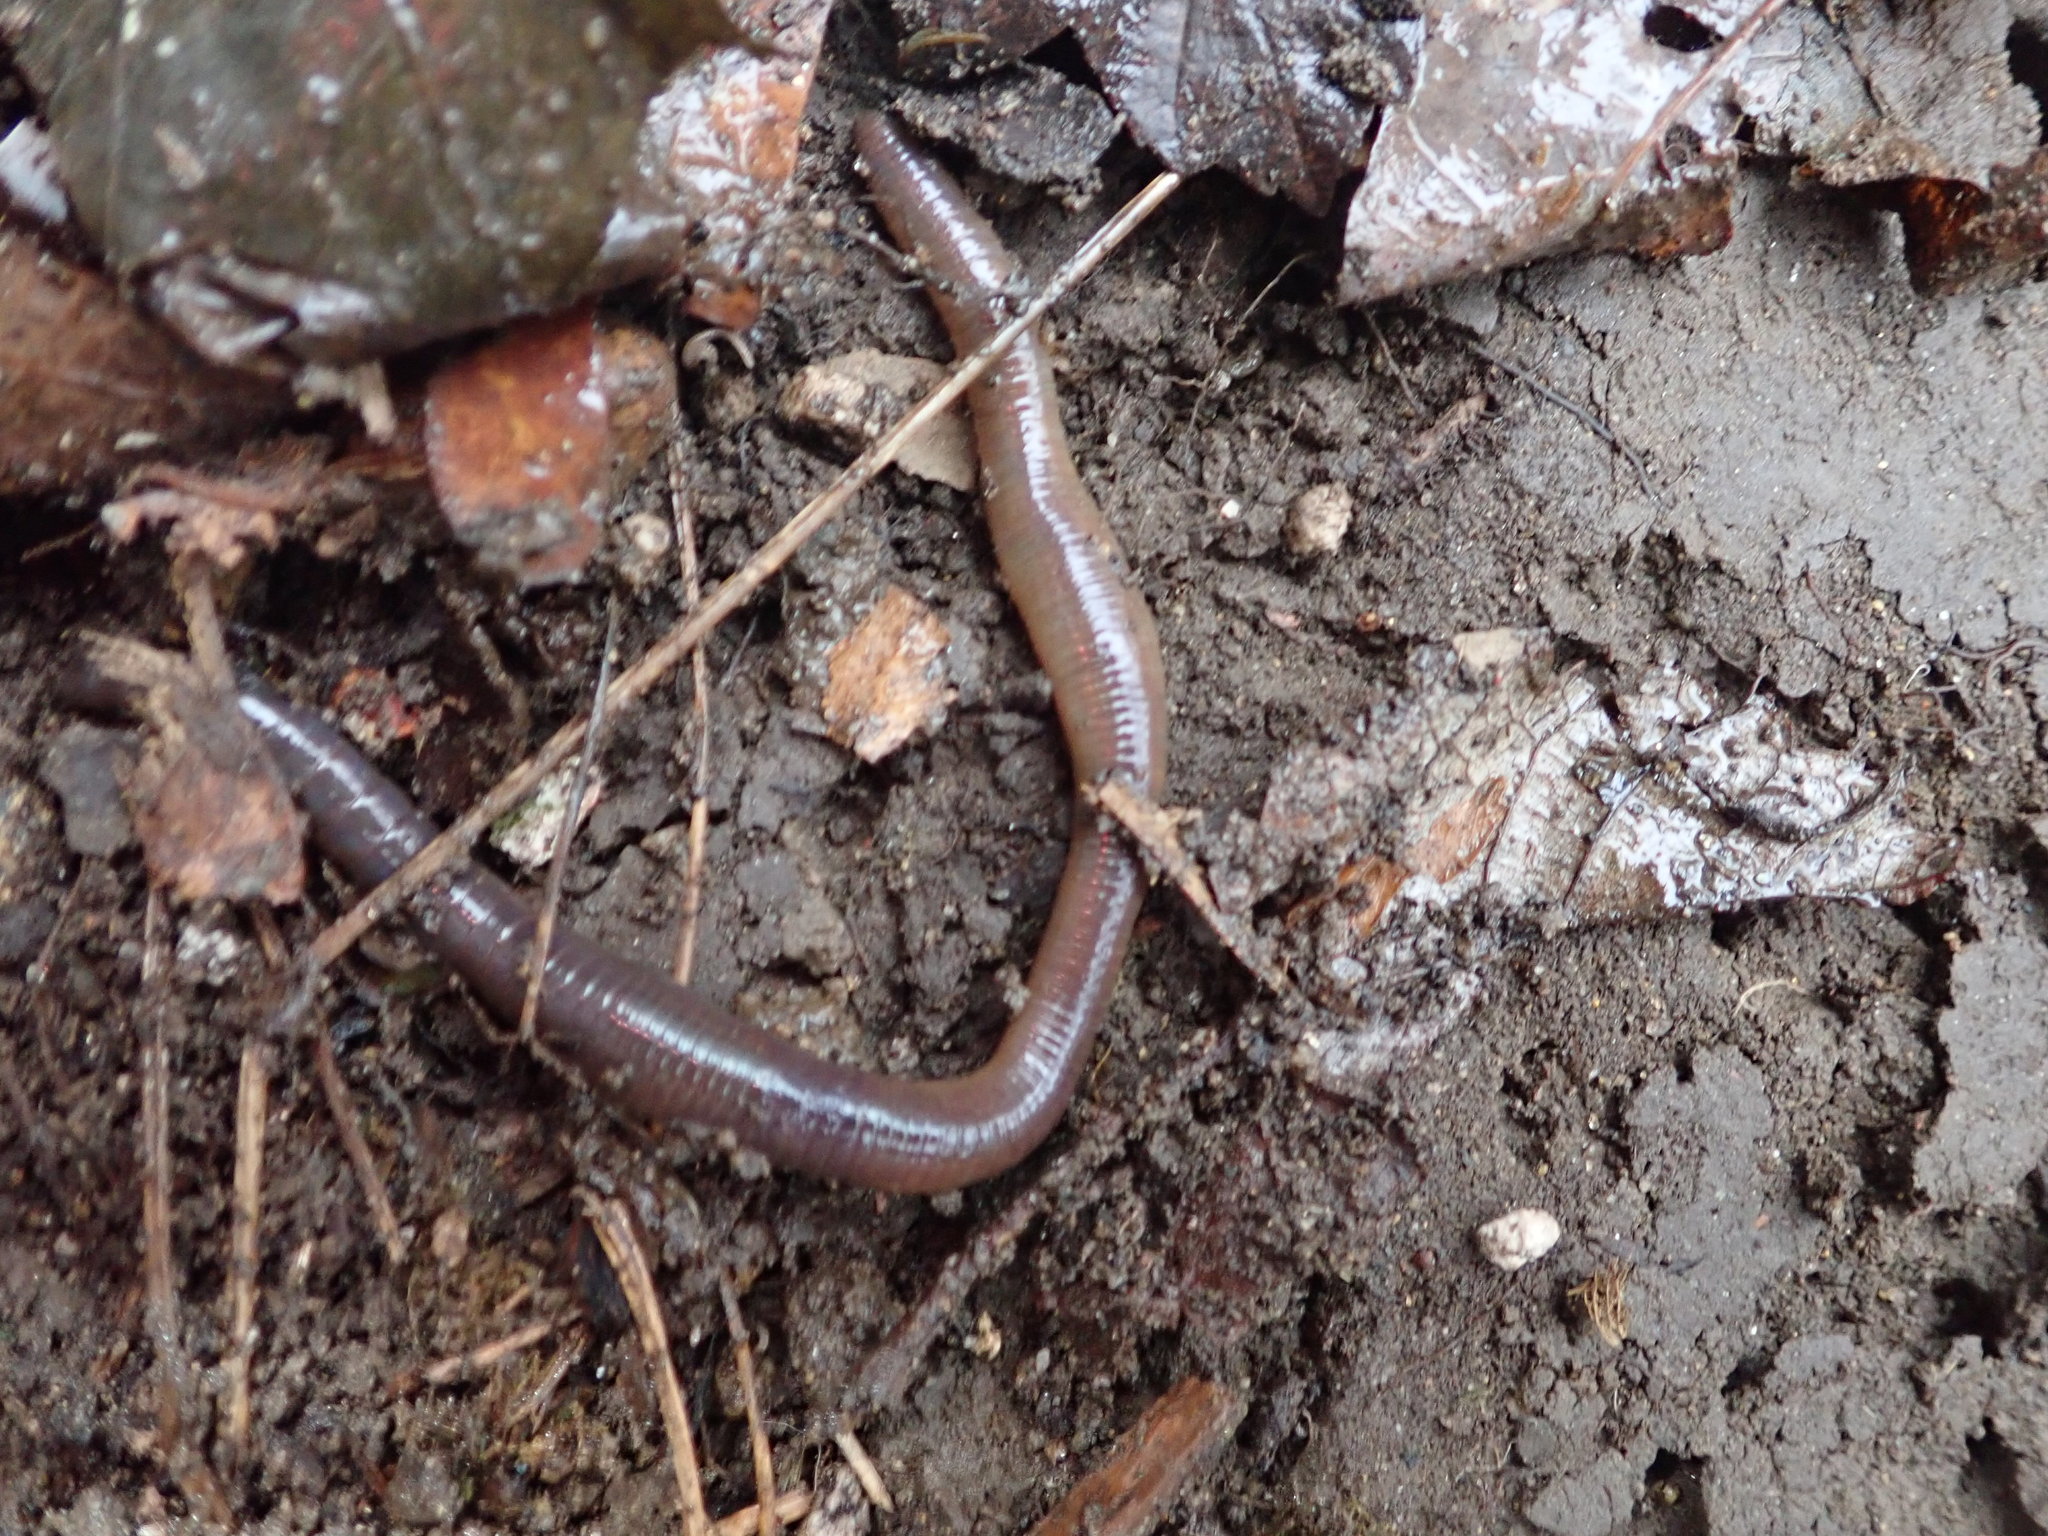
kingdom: Animalia
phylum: Annelida
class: Clitellata
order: Crassiclitellata
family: Lumbricidae
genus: Lumbricus
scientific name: Lumbricus terrestris
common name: Common earthworm
